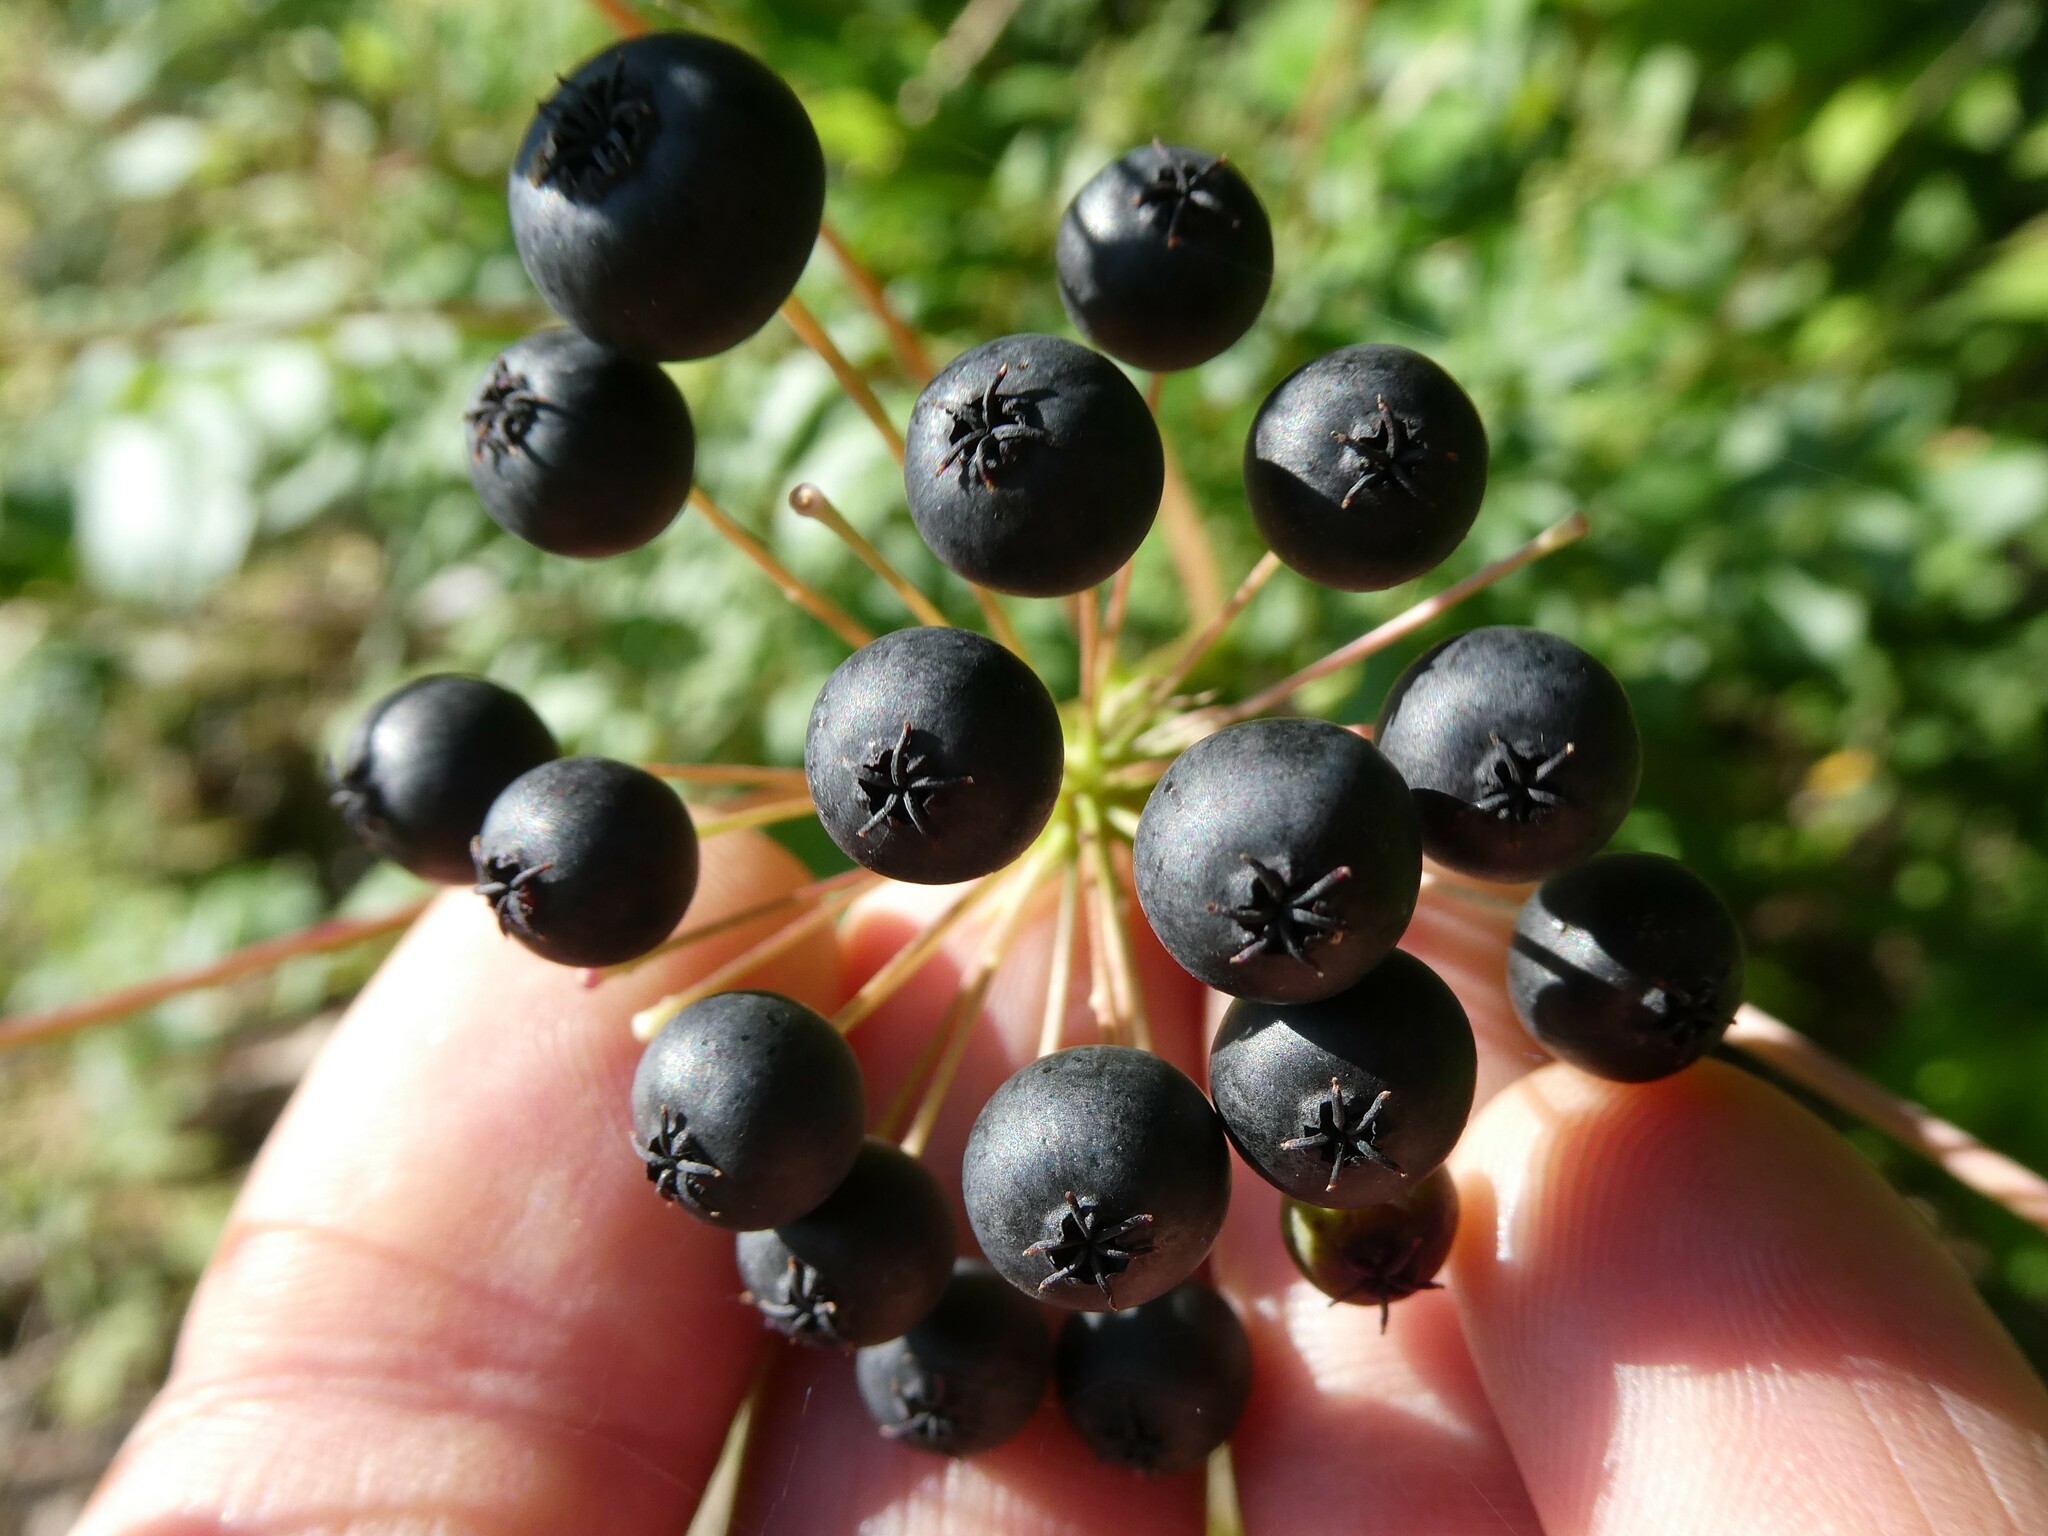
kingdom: Plantae
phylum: Tracheophyta
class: Magnoliopsida
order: Apiales
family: Araliaceae
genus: Aralia
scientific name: Aralia hispida
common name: Bristly sarsaparilla
